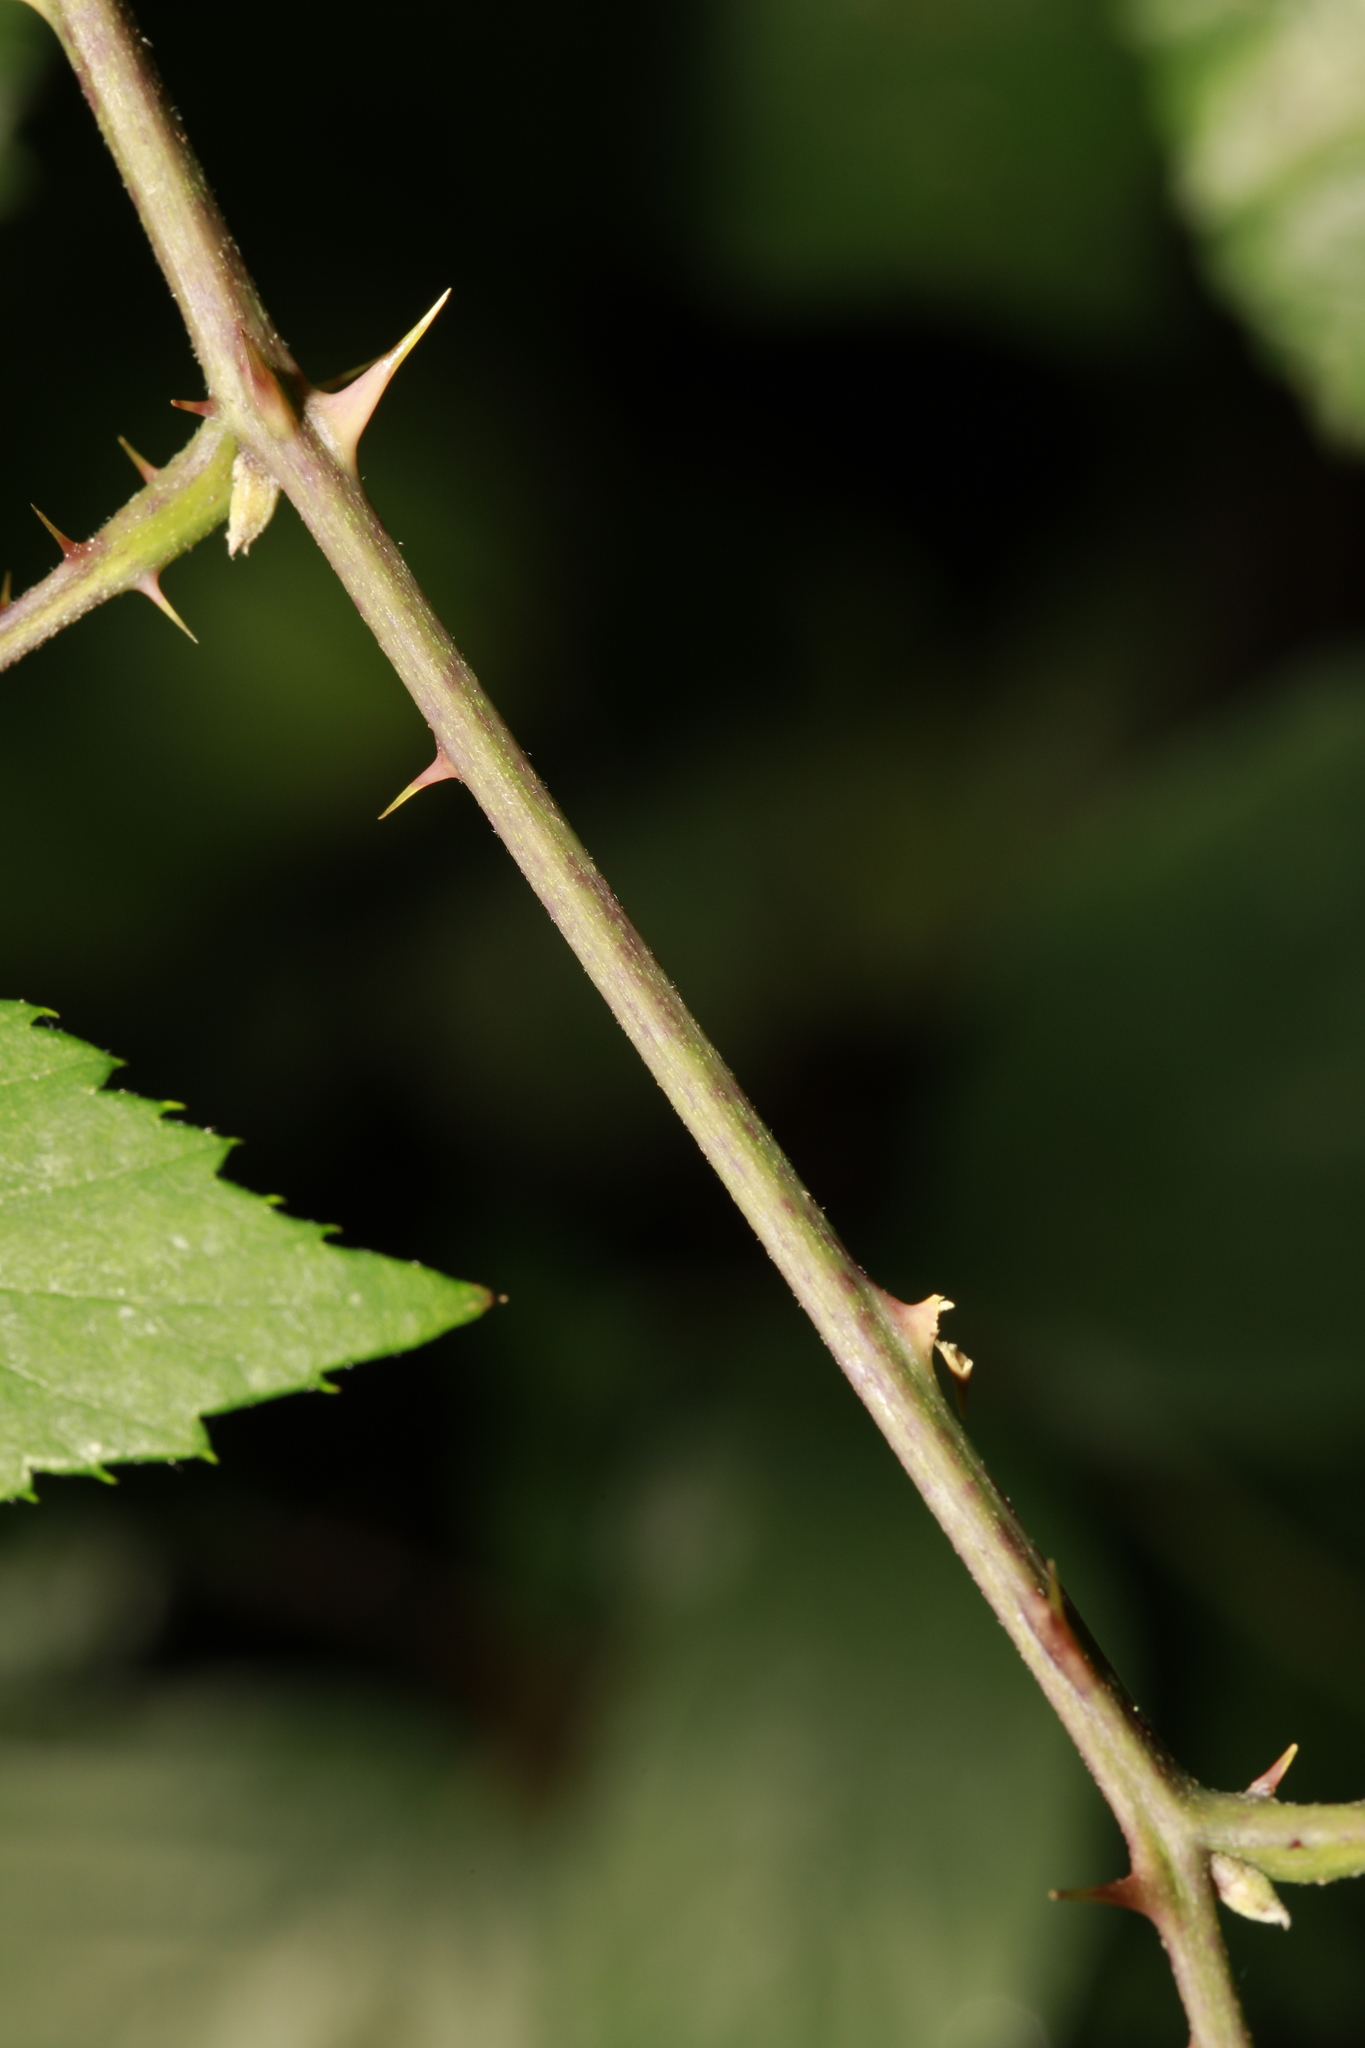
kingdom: Plantae
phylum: Tracheophyta
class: Magnoliopsida
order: Rosales
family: Rosaceae
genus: Rubus
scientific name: Rubus cissburiensis
